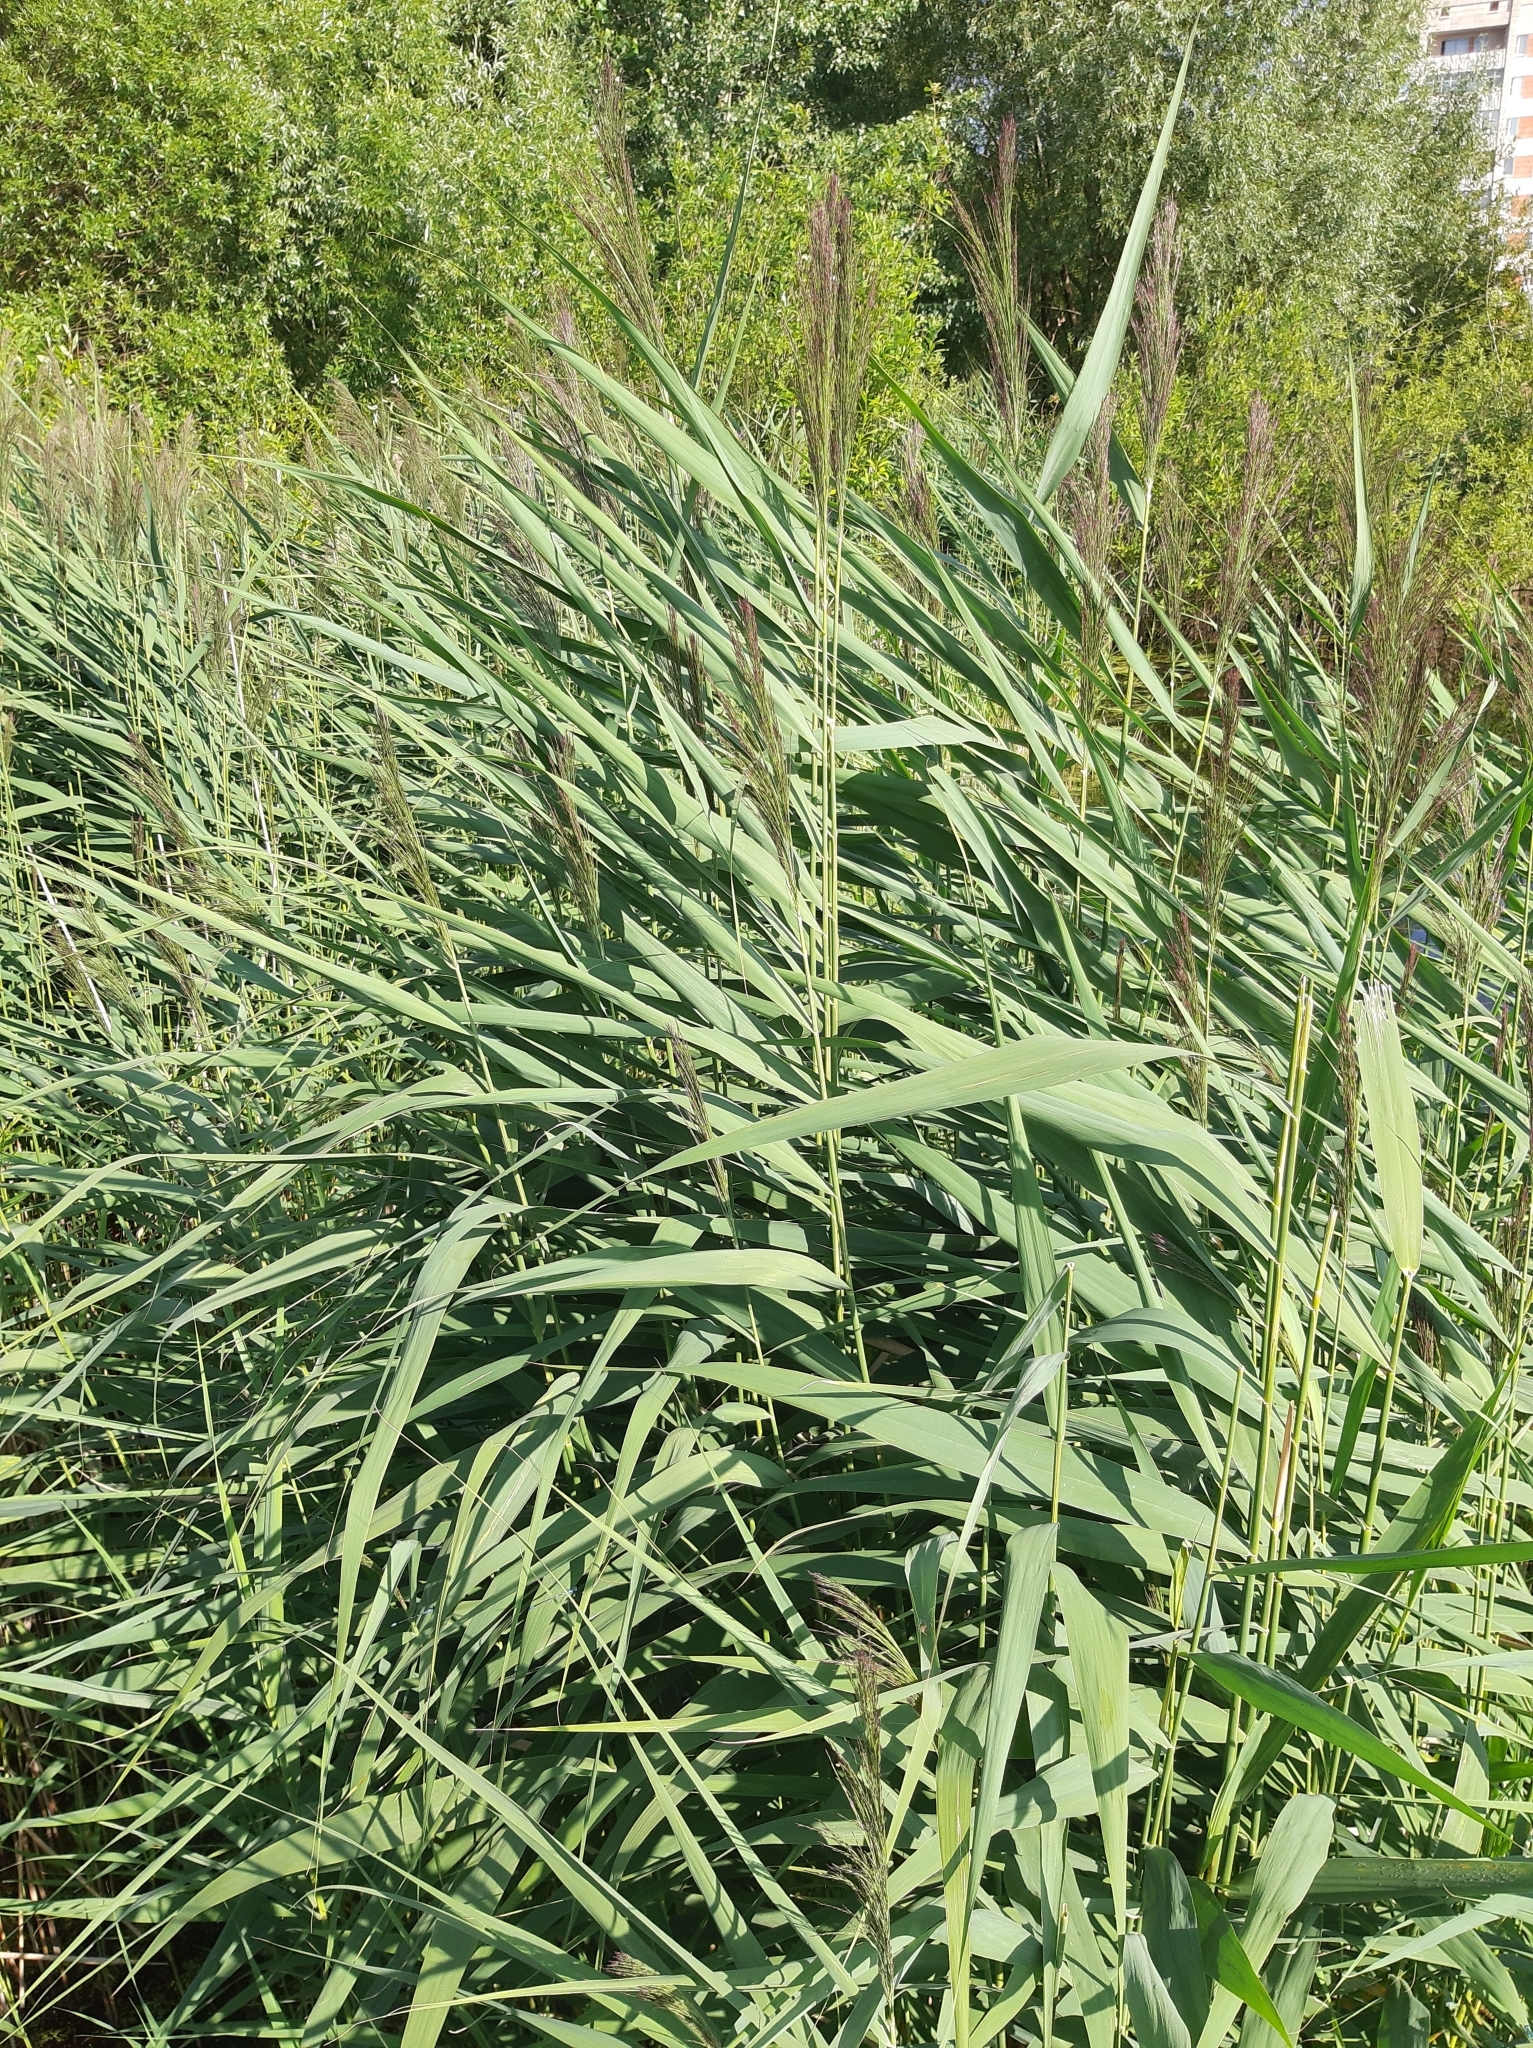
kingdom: Plantae
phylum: Tracheophyta
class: Liliopsida
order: Poales
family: Poaceae
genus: Phragmites
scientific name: Phragmites australis
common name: Common reed
